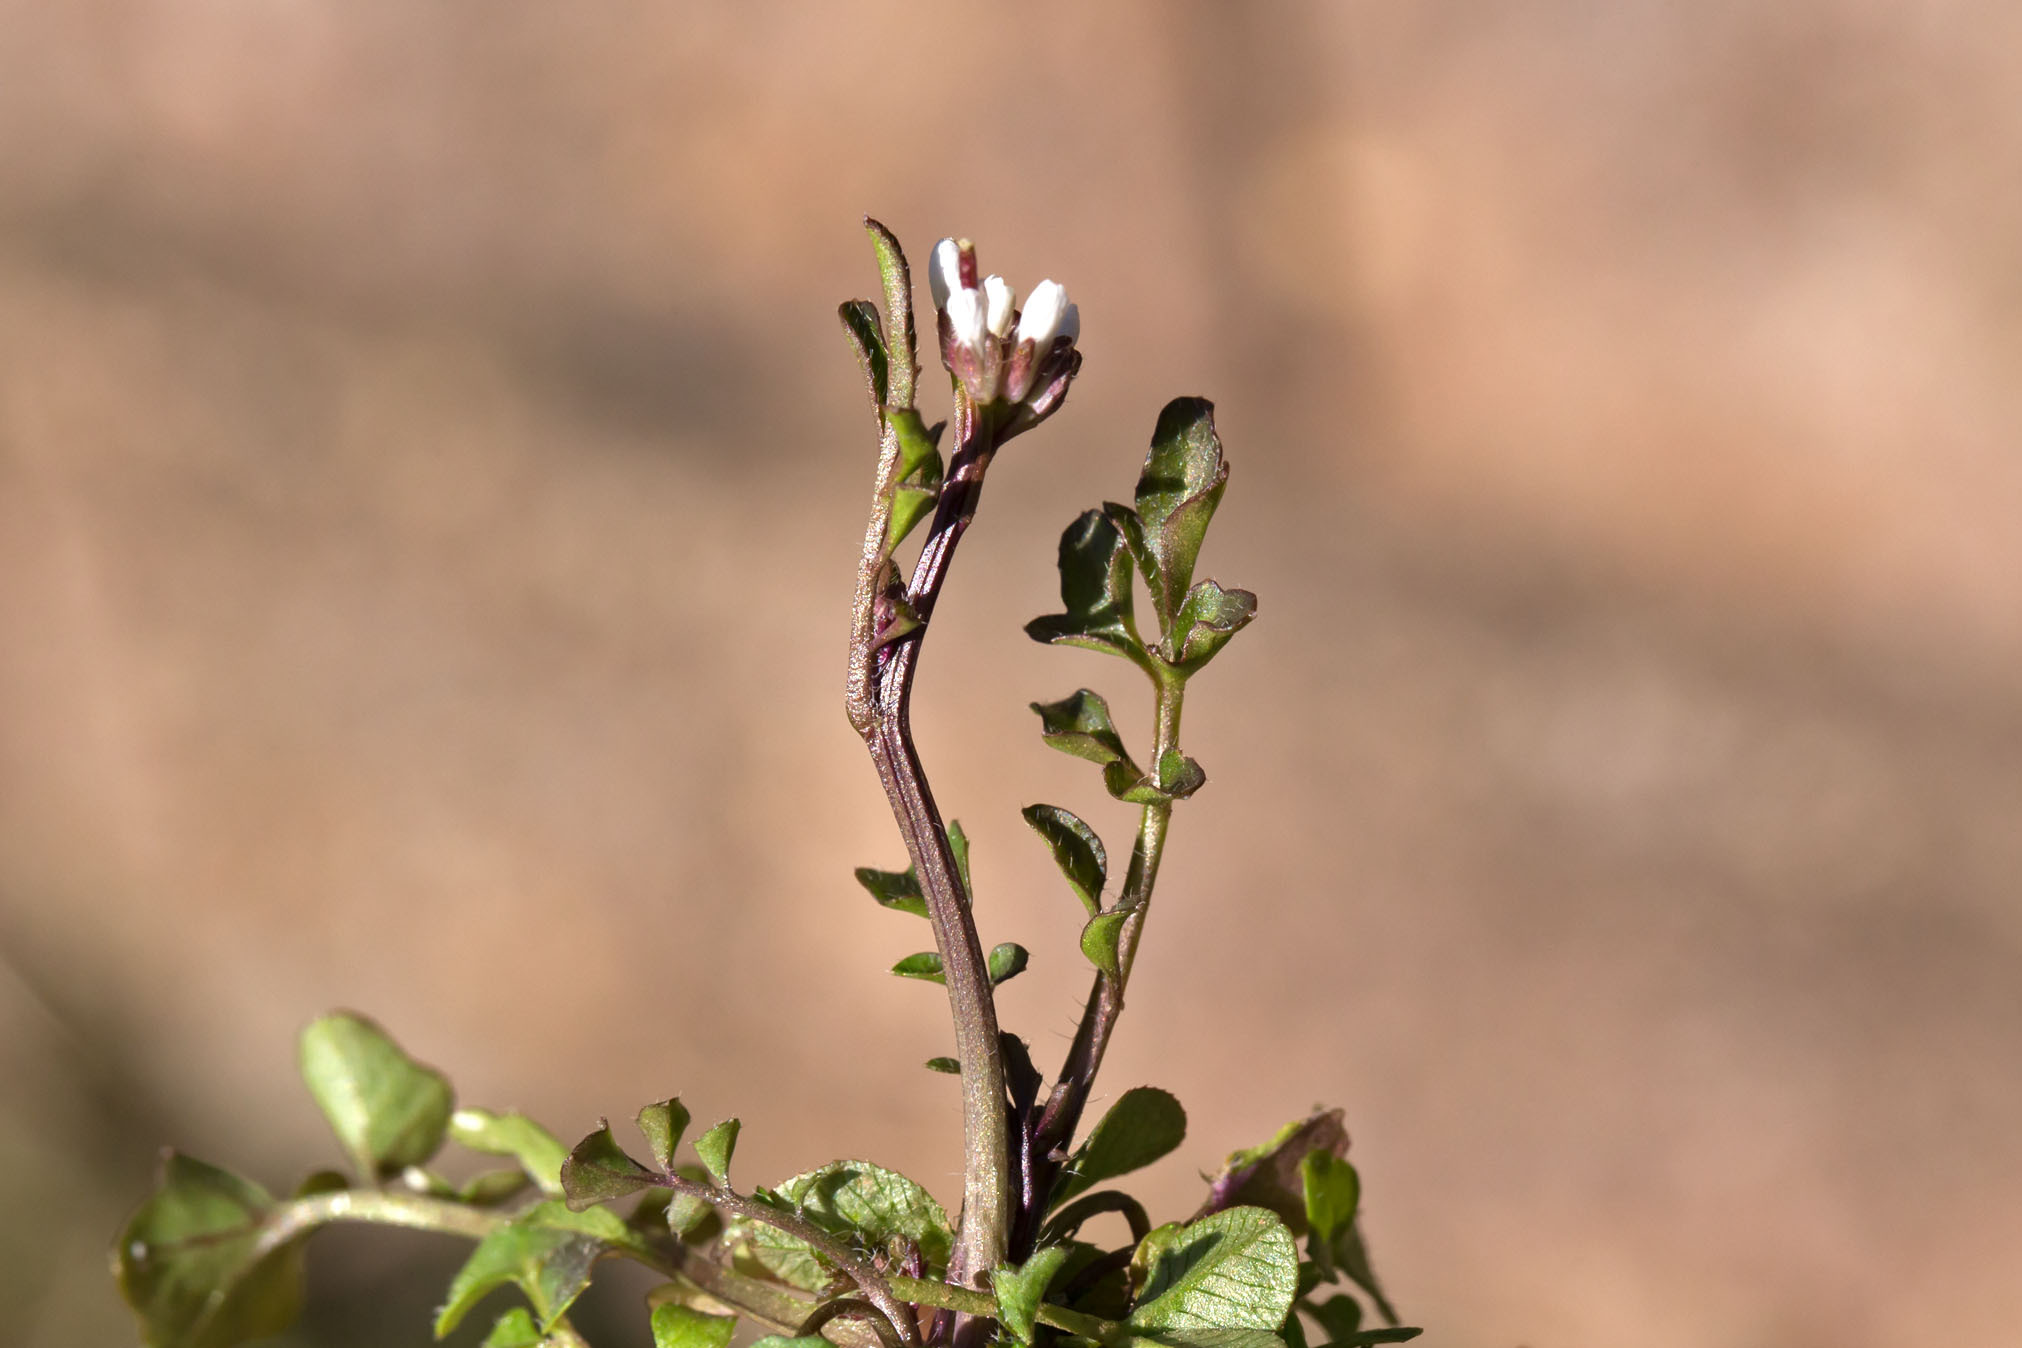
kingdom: Plantae
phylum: Tracheophyta
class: Magnoliopsida
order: Brassicales
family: Brassicaceae
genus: Cardamine
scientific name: Cardamine hirsuta
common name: Hairy bittercress
